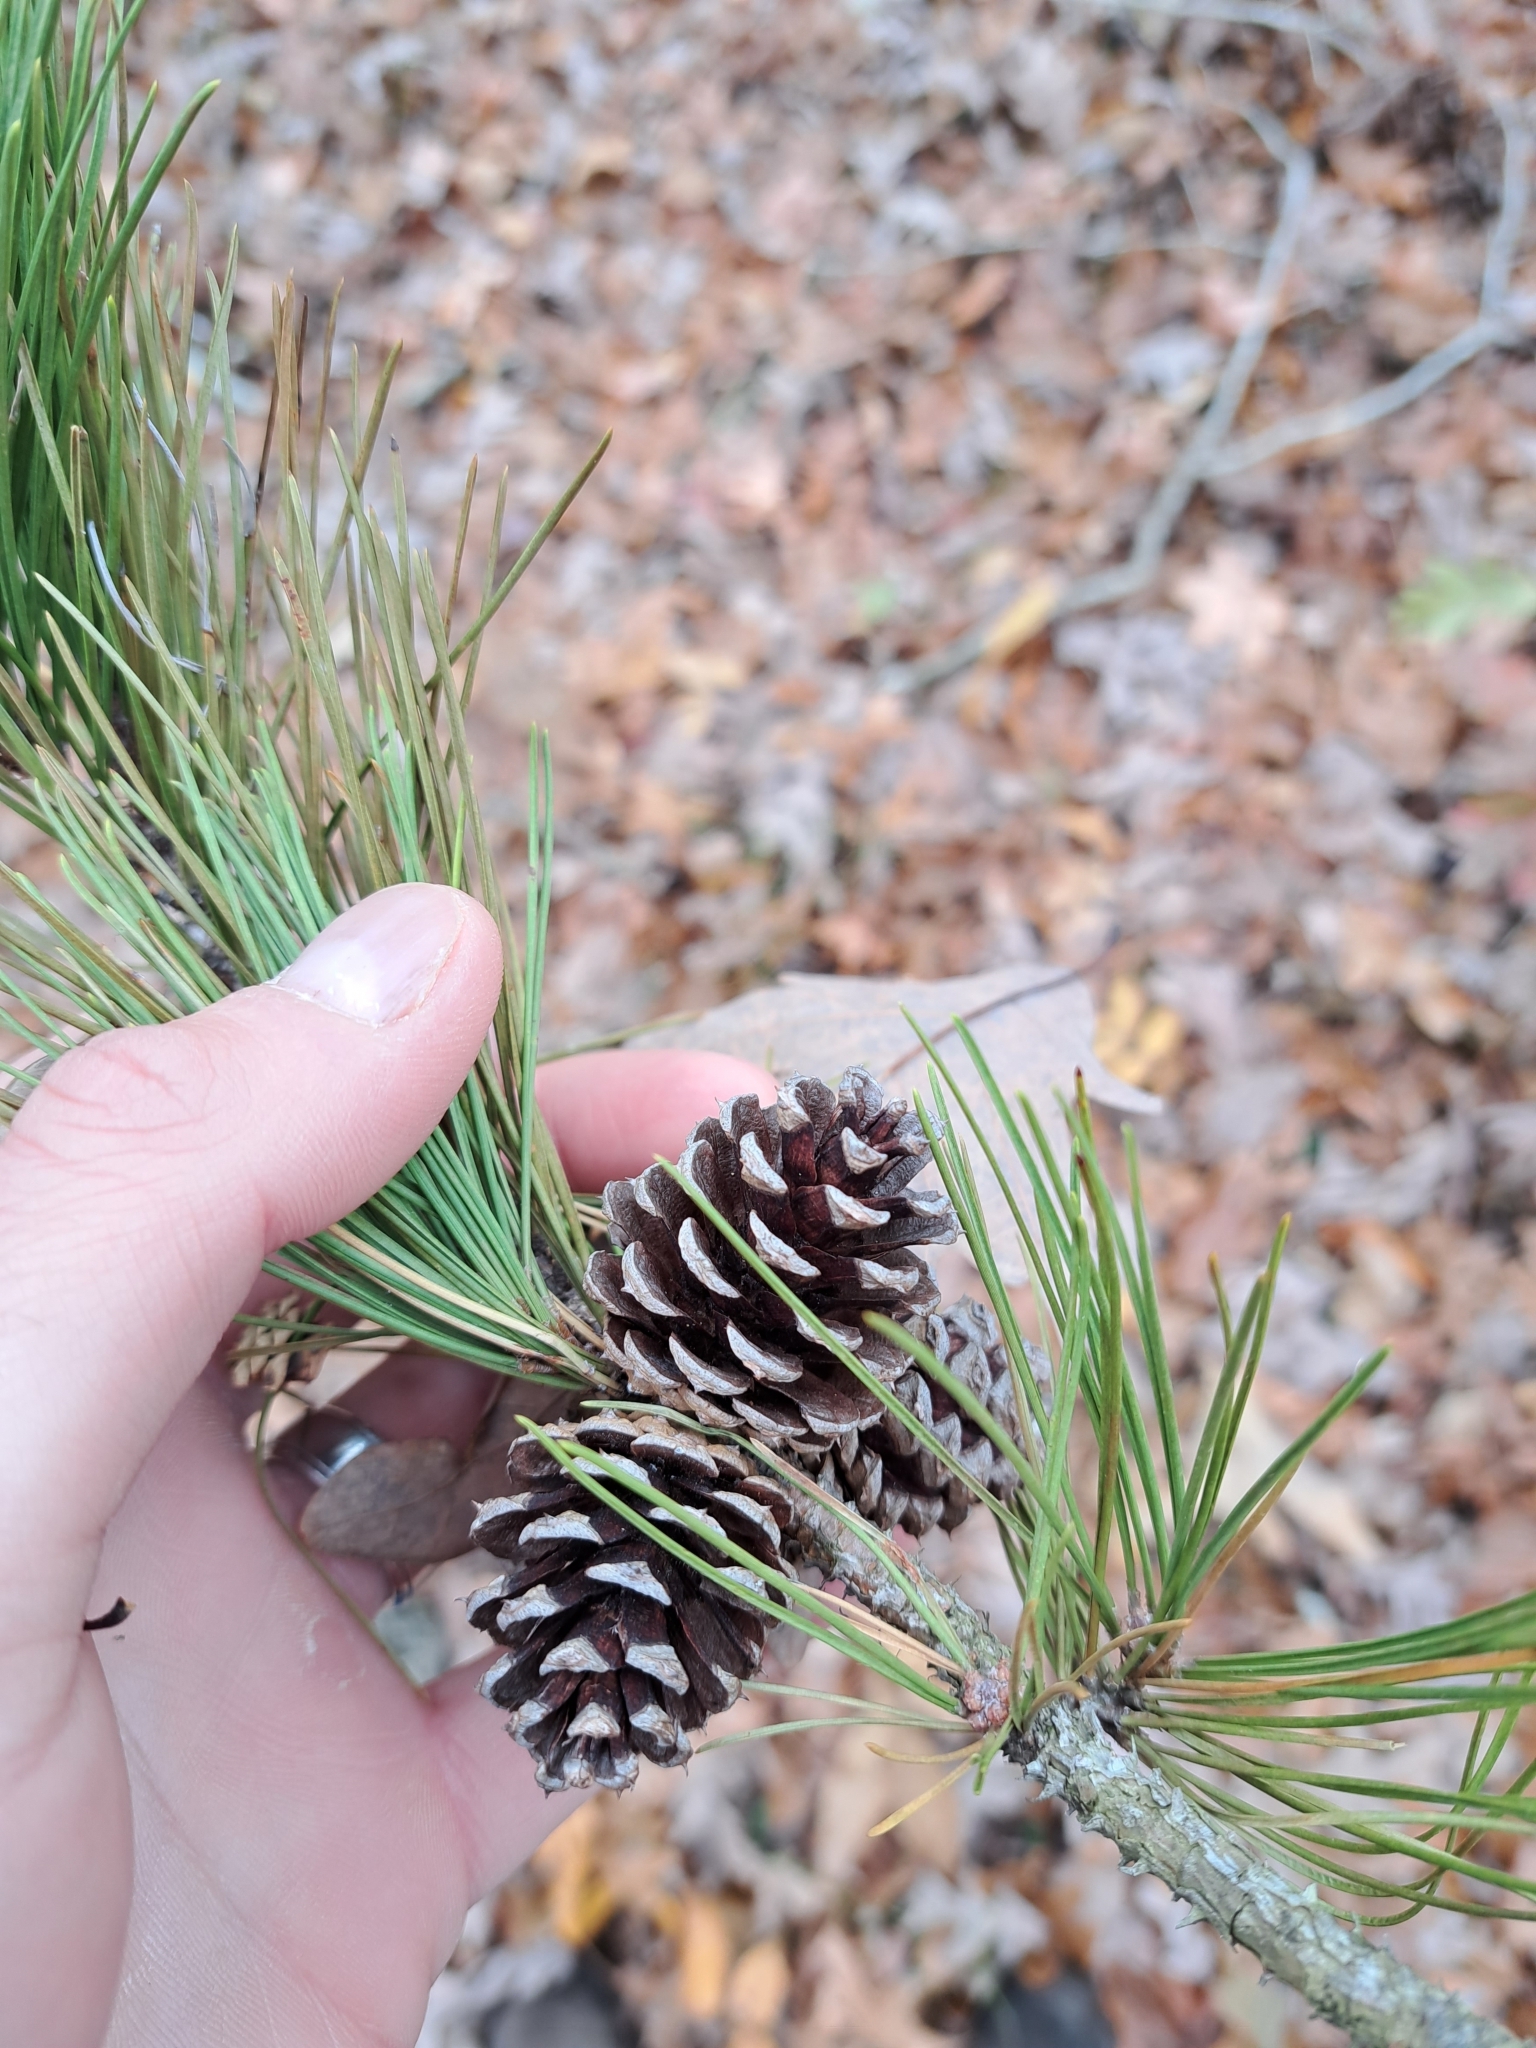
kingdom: Plantae
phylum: Tracheophyta
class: Pinopsida
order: Pinales
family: Pinaceae
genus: Pinus
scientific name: Pinus echinata
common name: Shortleaf pine
